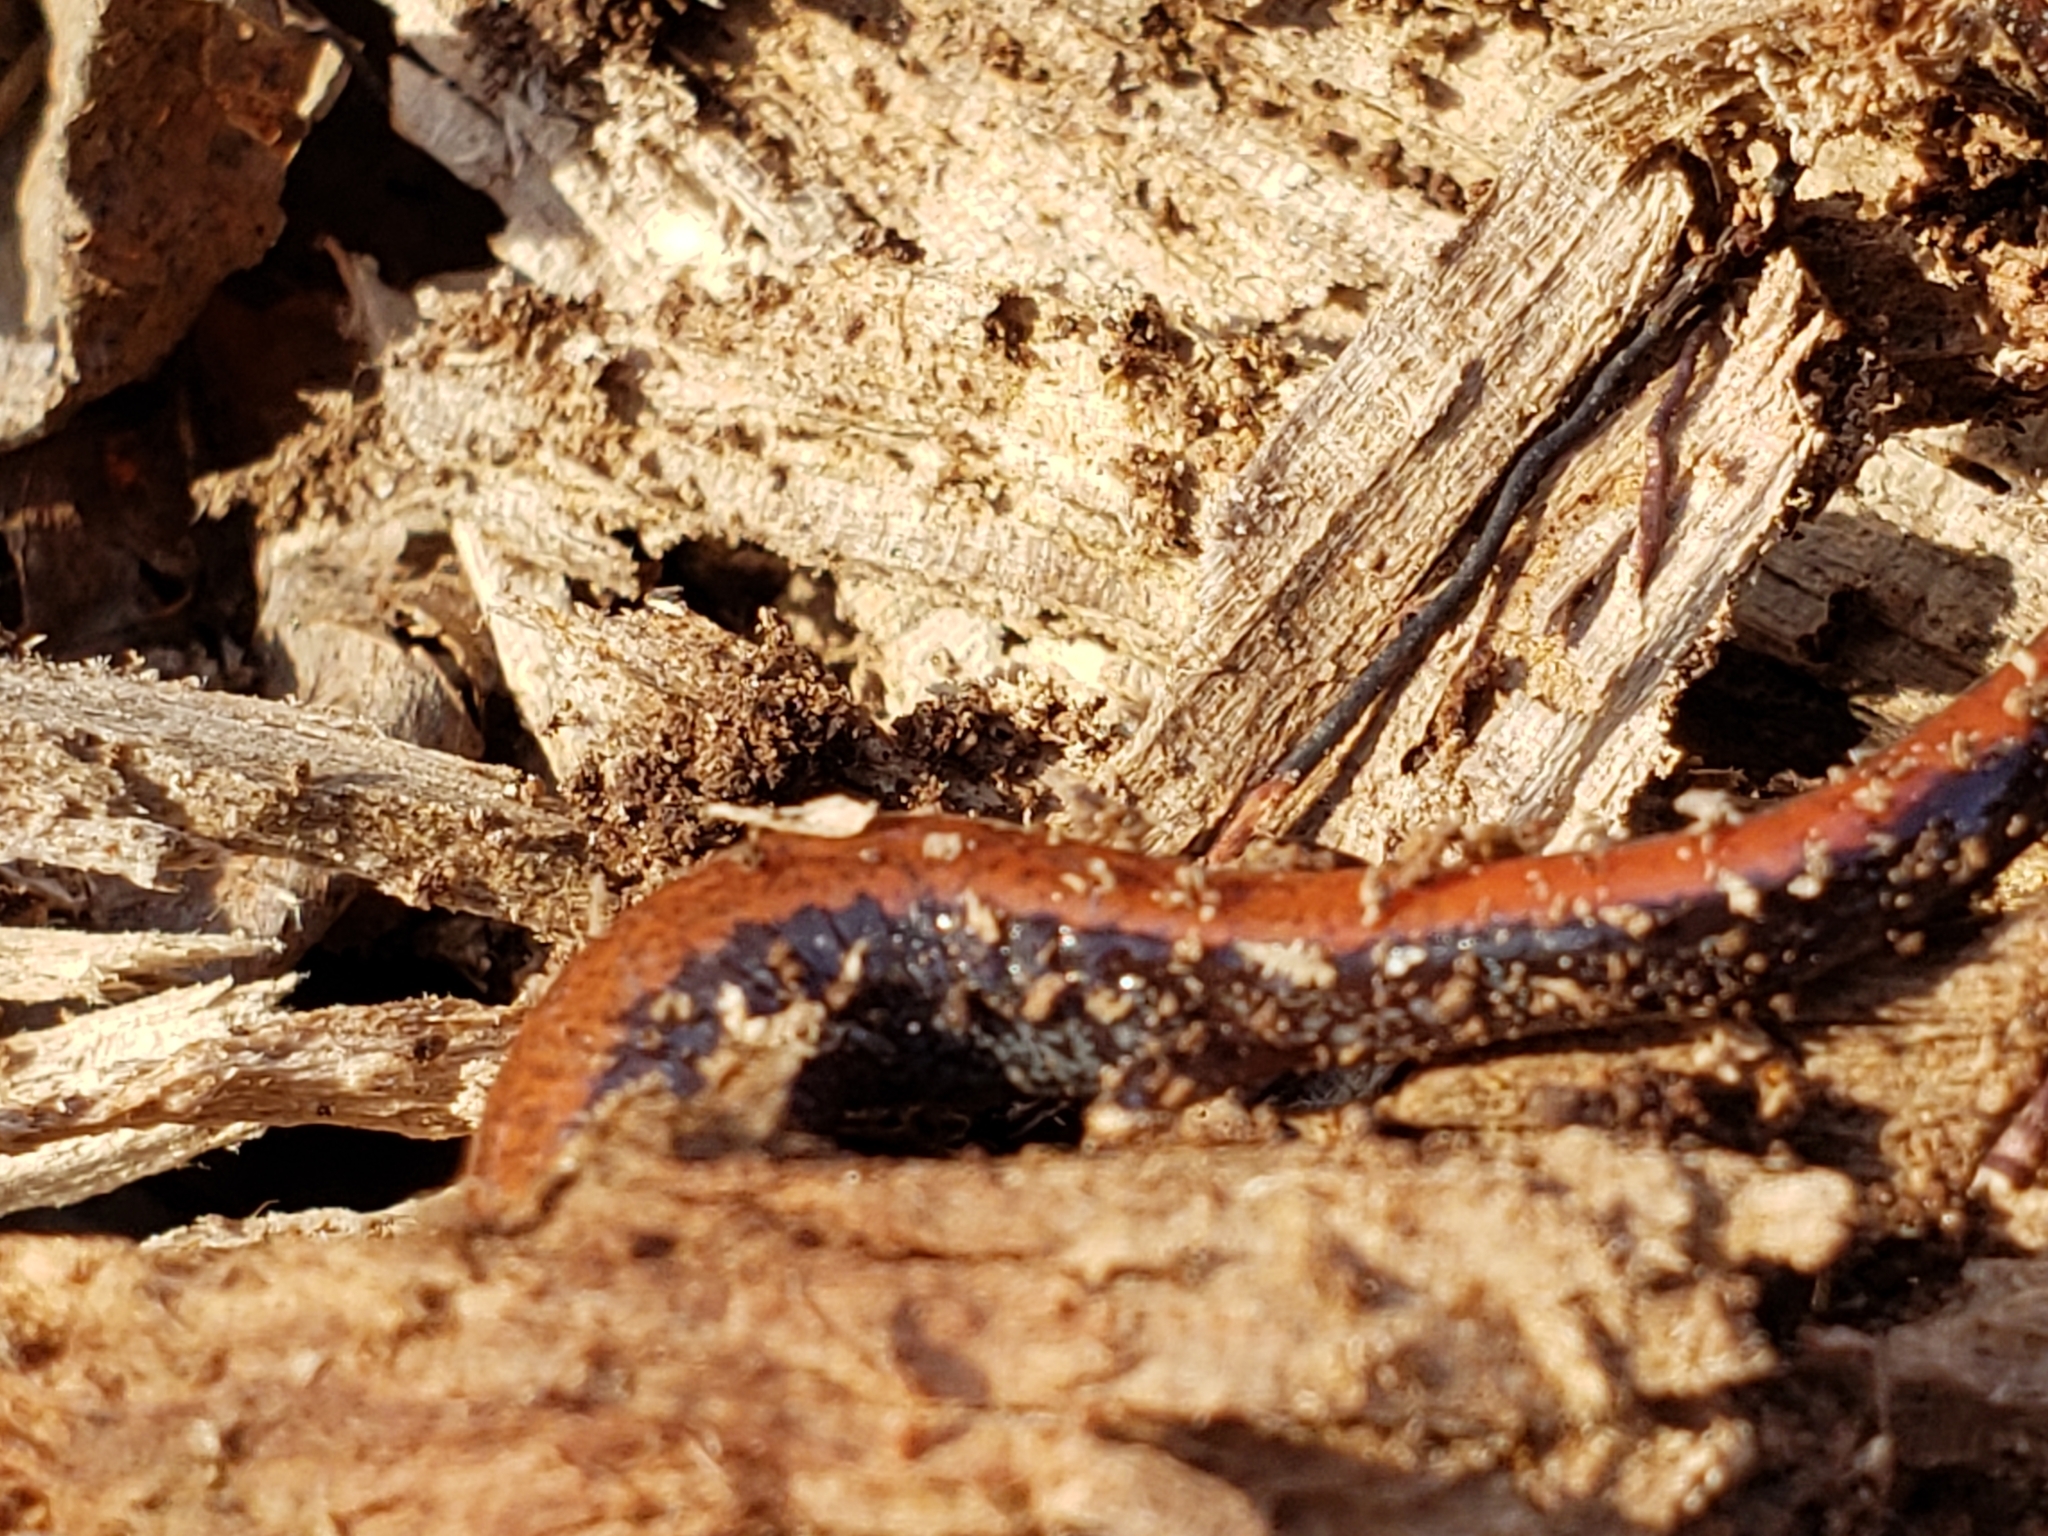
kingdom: Animalia
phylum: Chordata
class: Amphibia
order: Caudata
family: Plethodontidae
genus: Plethodon
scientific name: Plethodon cinereus
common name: Redback salamander
